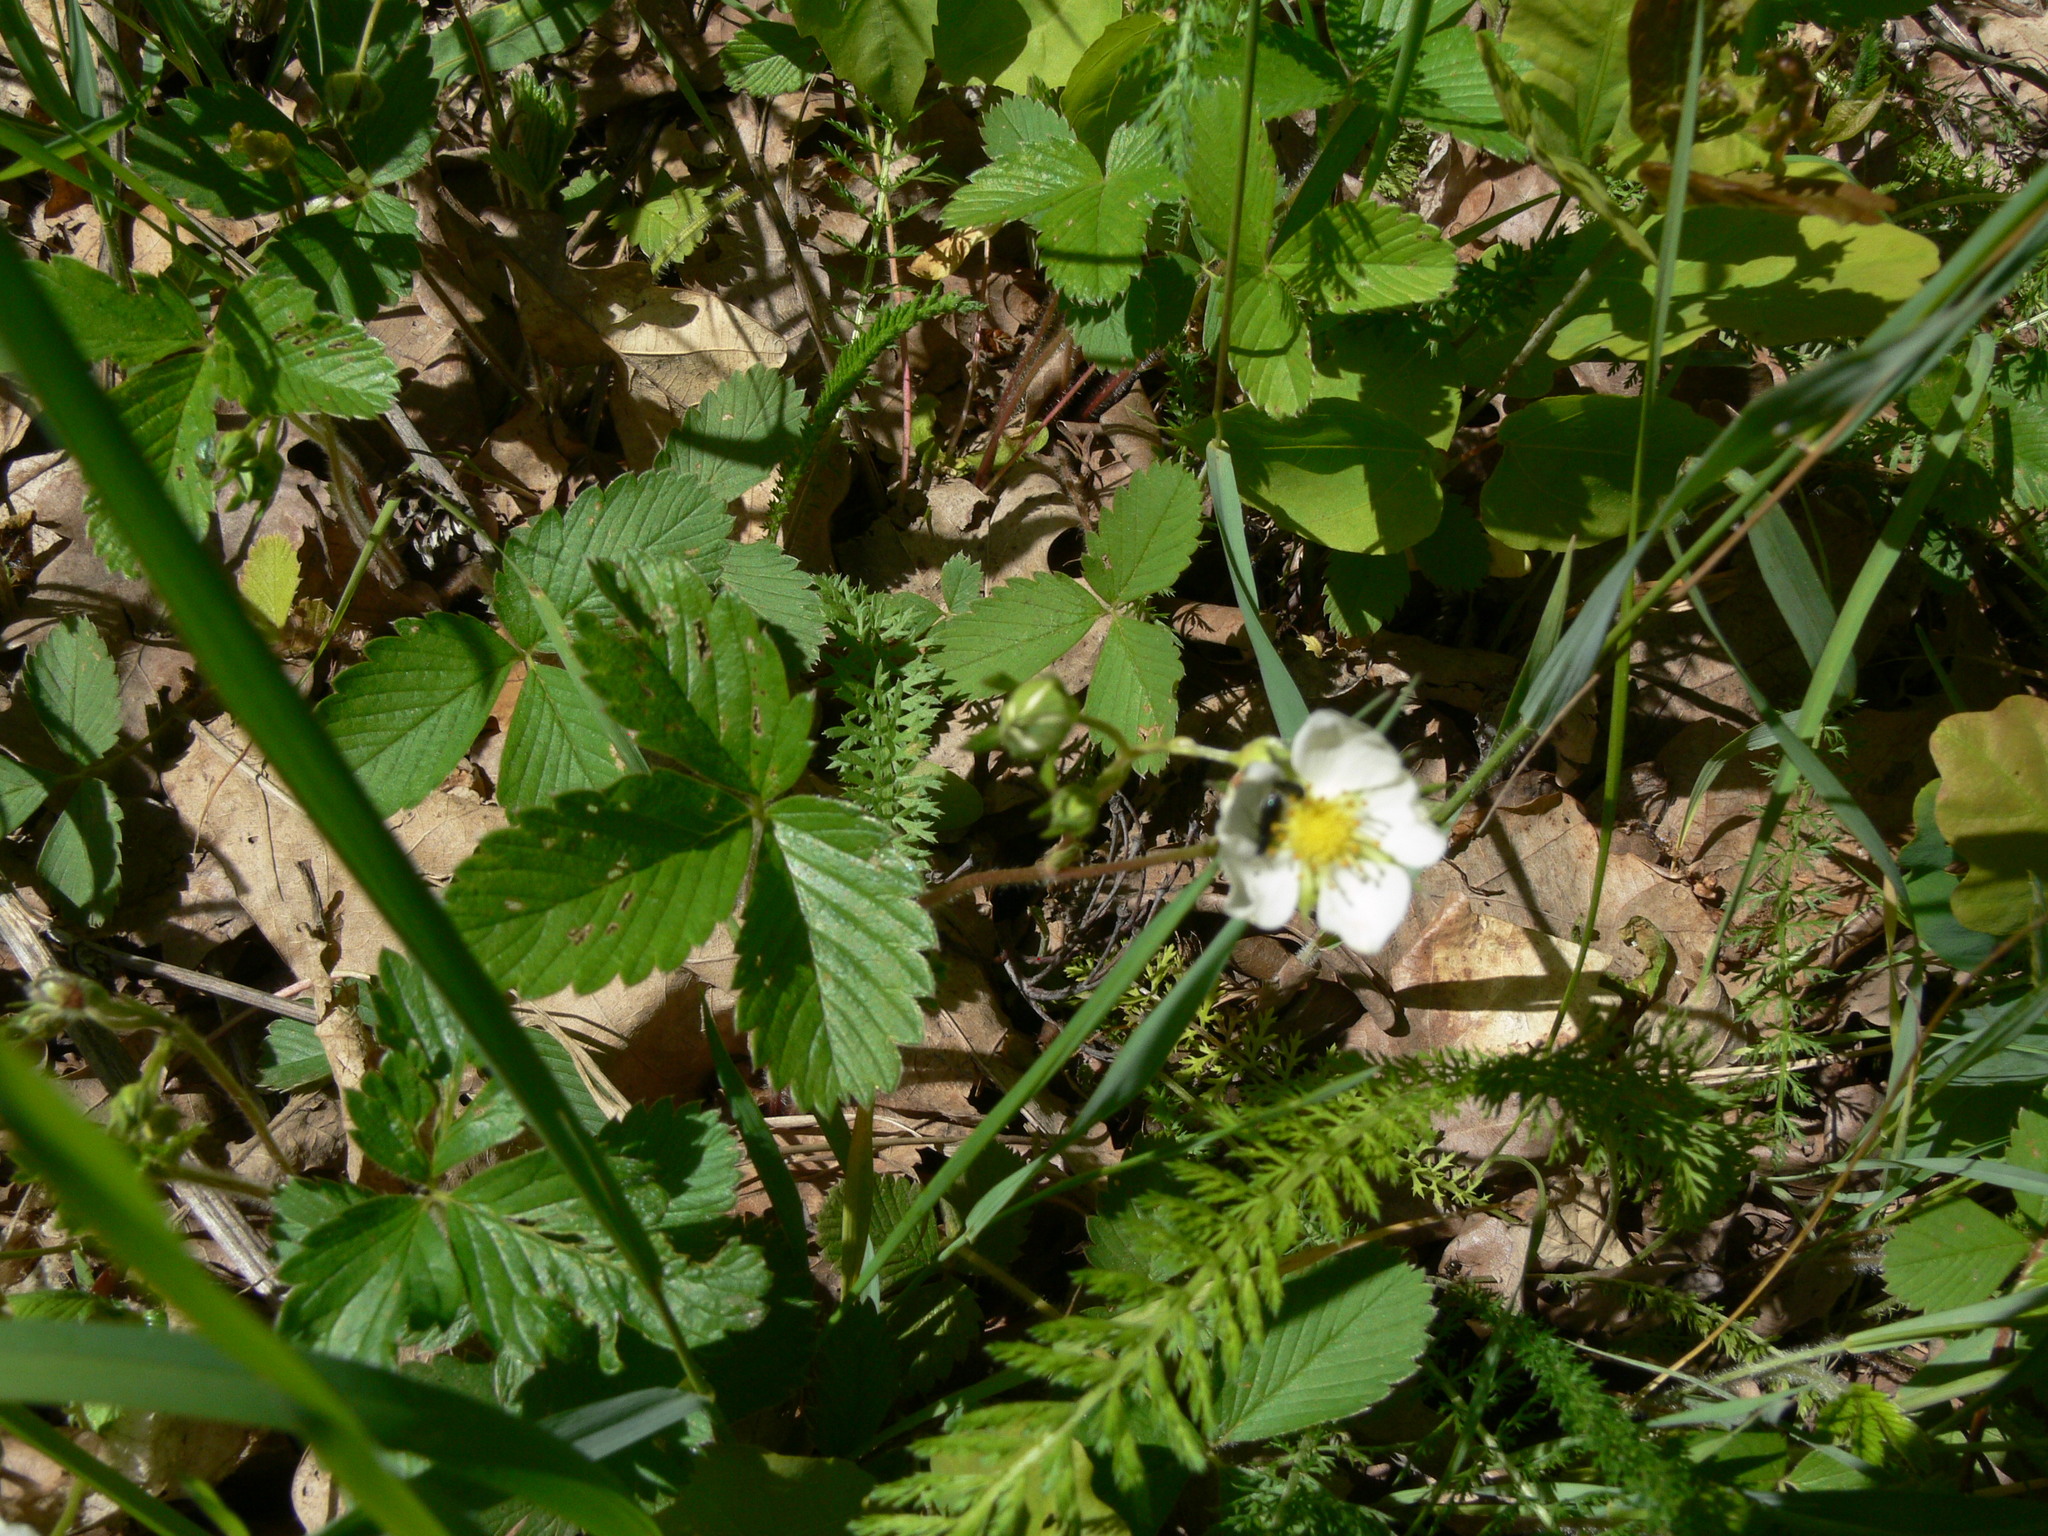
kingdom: Plantae
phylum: Tracheophyta
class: Magnoliopsida
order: Rosales
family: Rosaceae
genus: Fragaria
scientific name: Fragaria viridis
